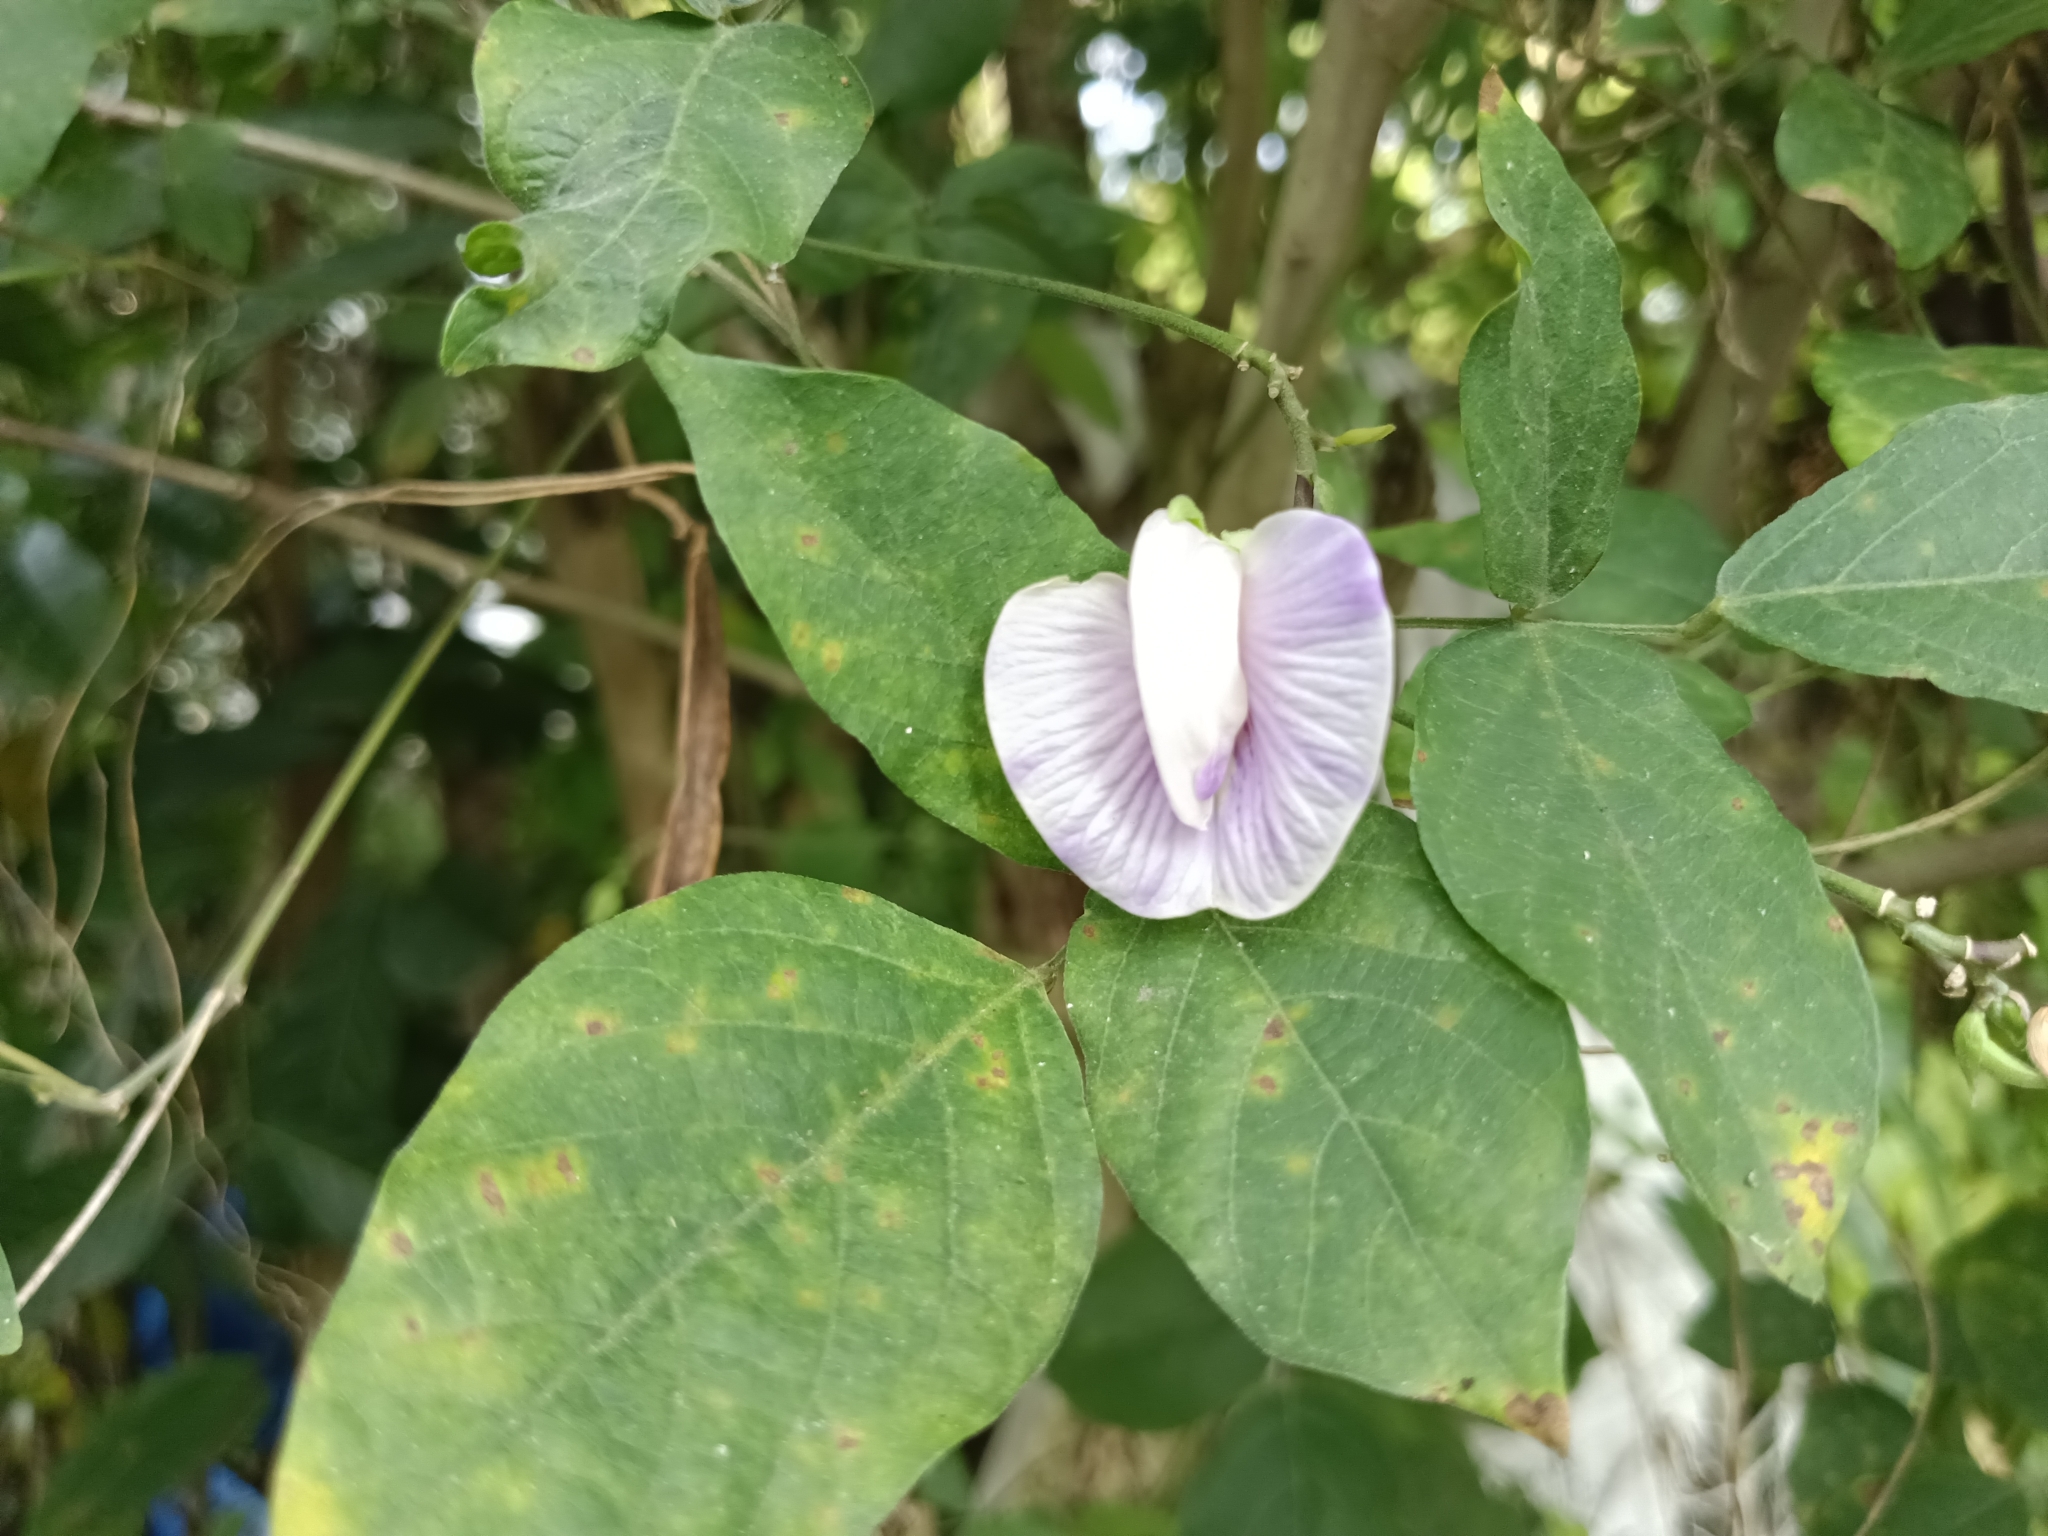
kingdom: Plantae
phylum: Tracheophyta
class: Magnoliopsida
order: Fabales
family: Fabaceae
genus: Centrosema
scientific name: Centrosema molle
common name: Soft butterfly pea
